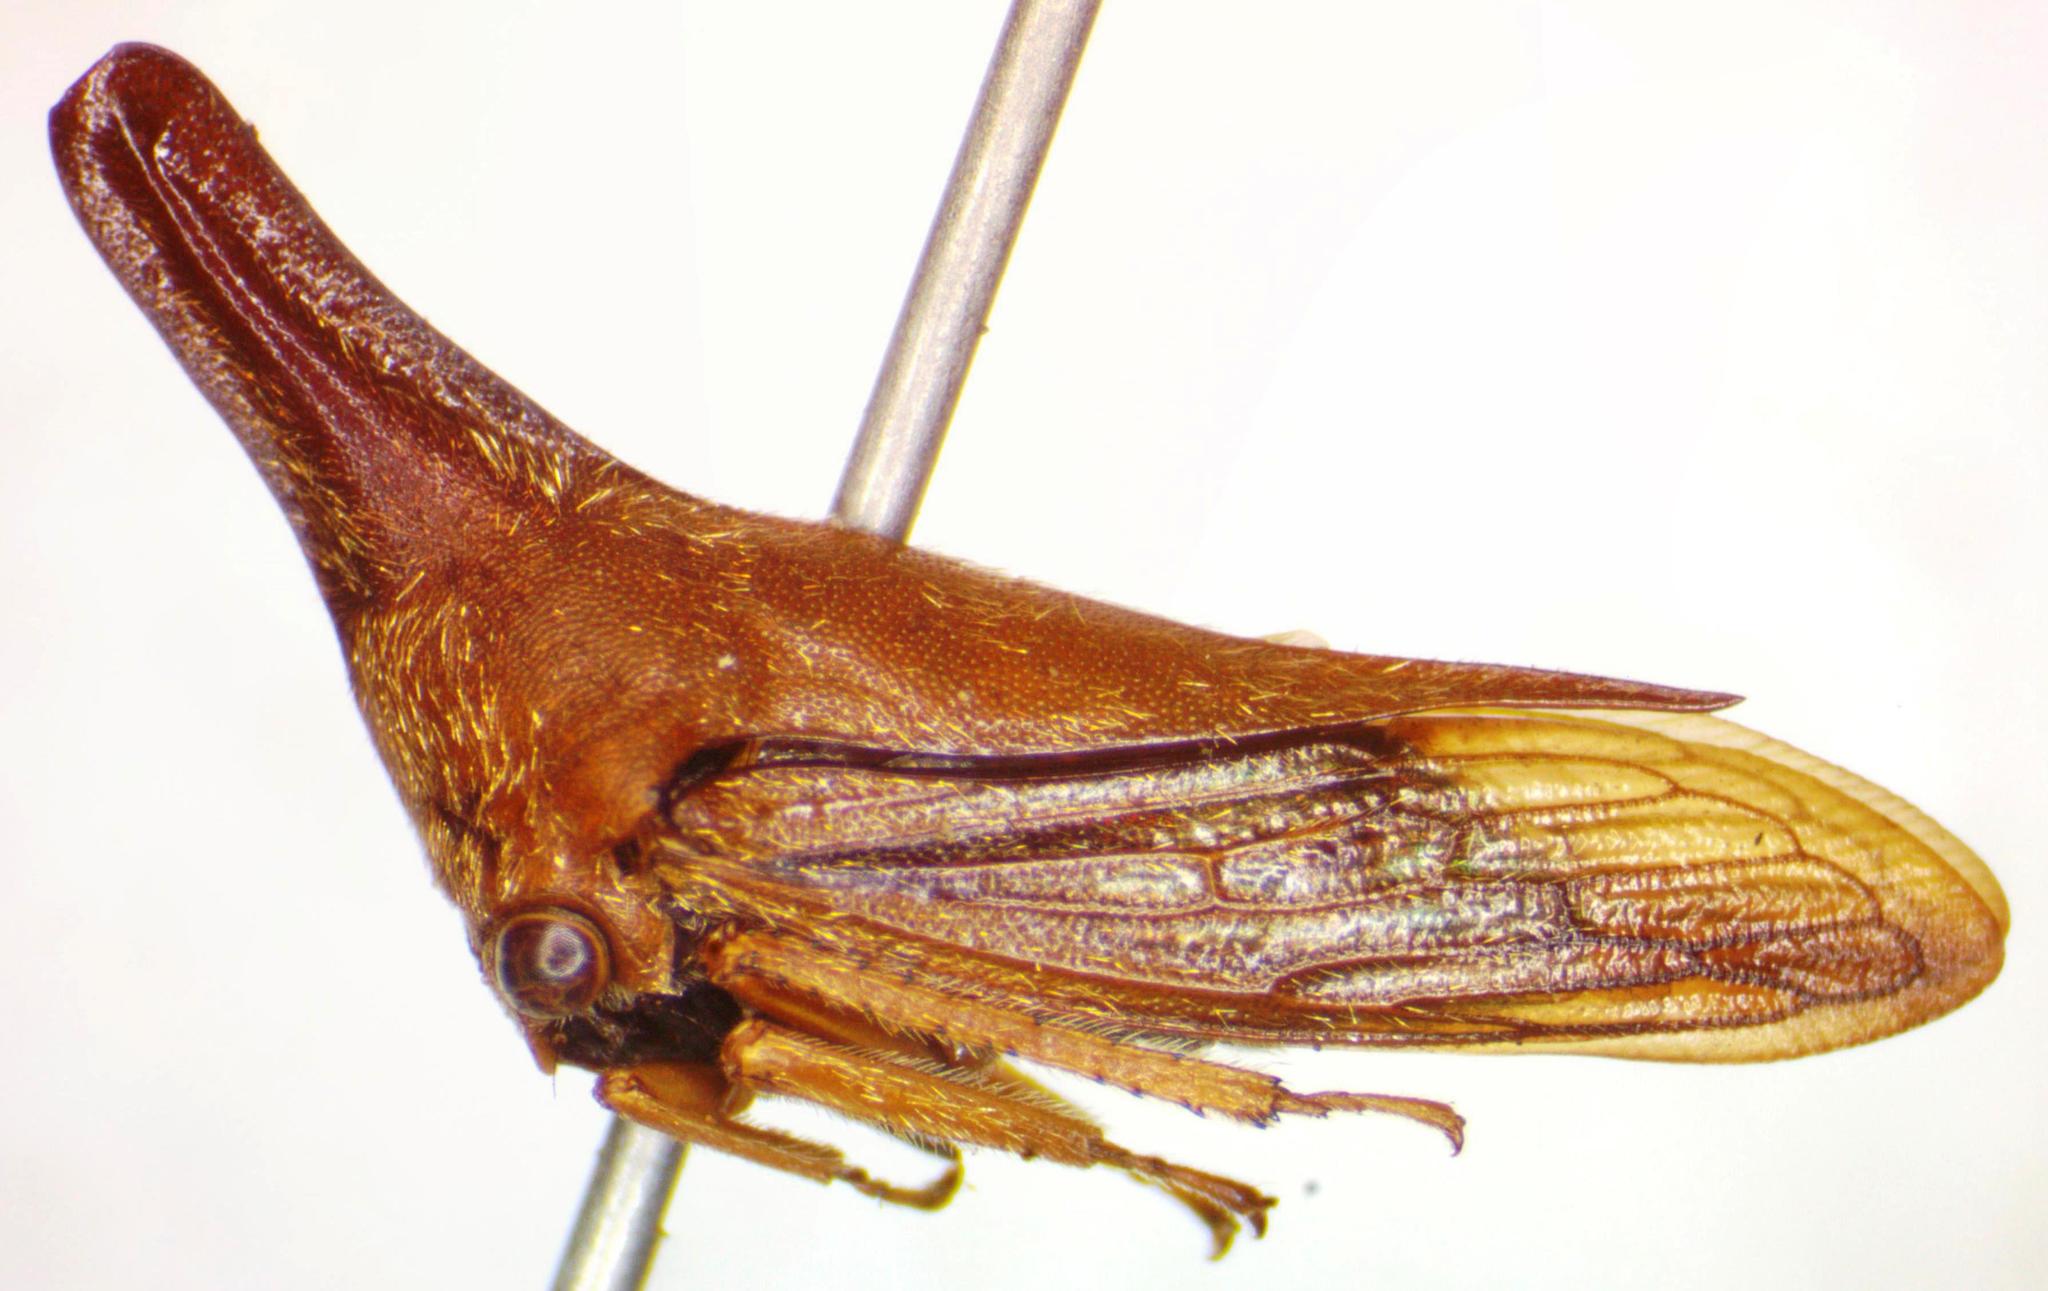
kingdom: Animalia
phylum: Arthropoda
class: Insecta
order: Hemiptera
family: Membracidae
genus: Aconophora
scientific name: Aconophora laminata
